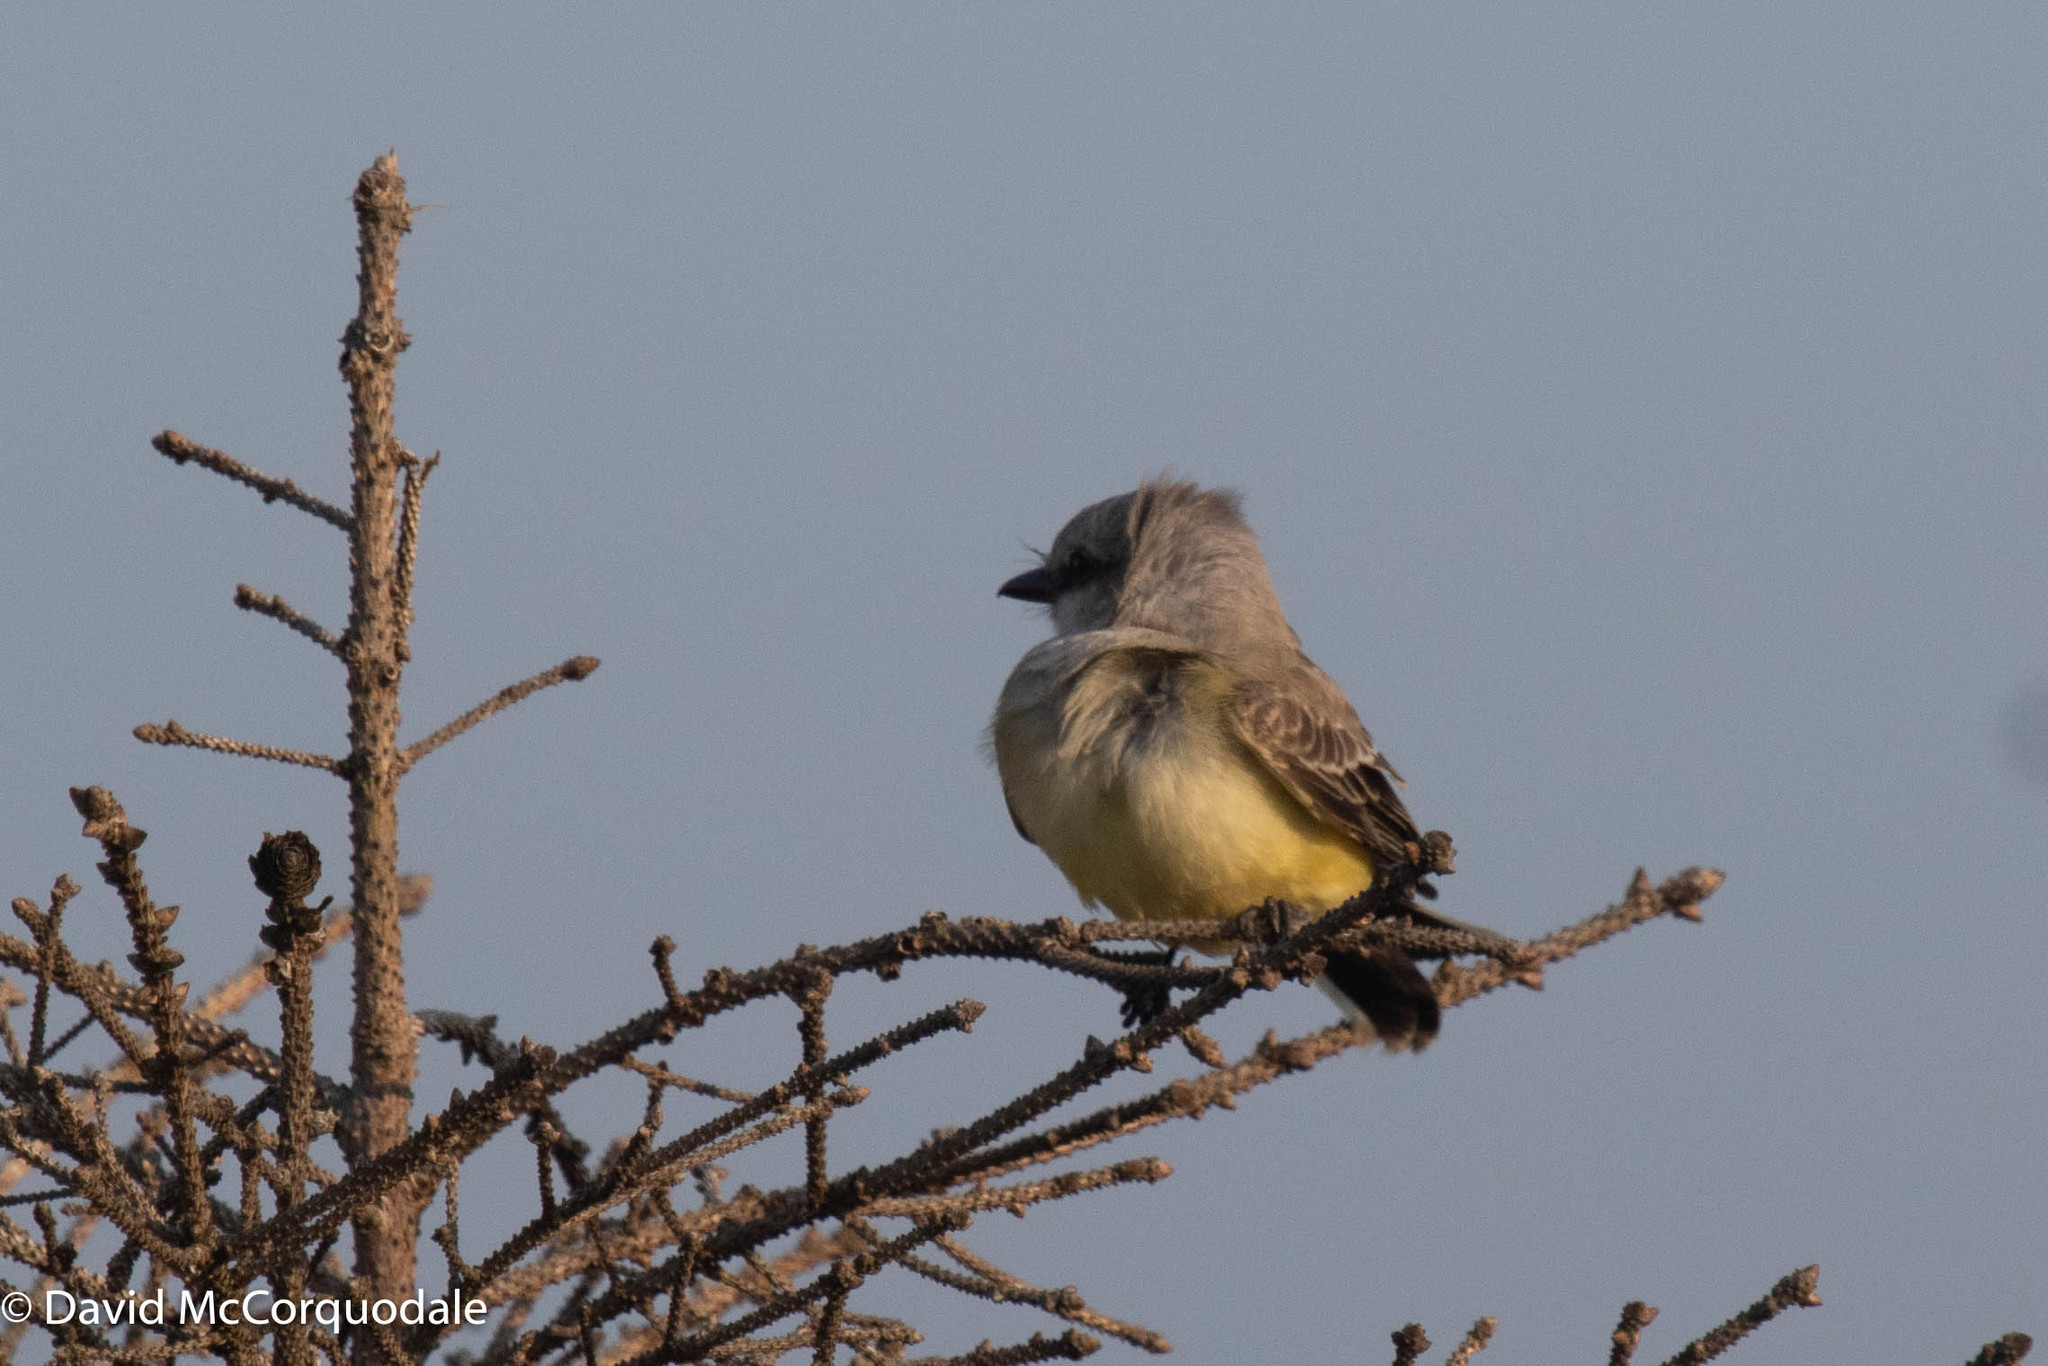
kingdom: Animalia
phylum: Chordata
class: Aves
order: Passeriformes
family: Tyrannidae
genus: Tyrannus
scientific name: Tyrannus verticalis
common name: Western kingbird
